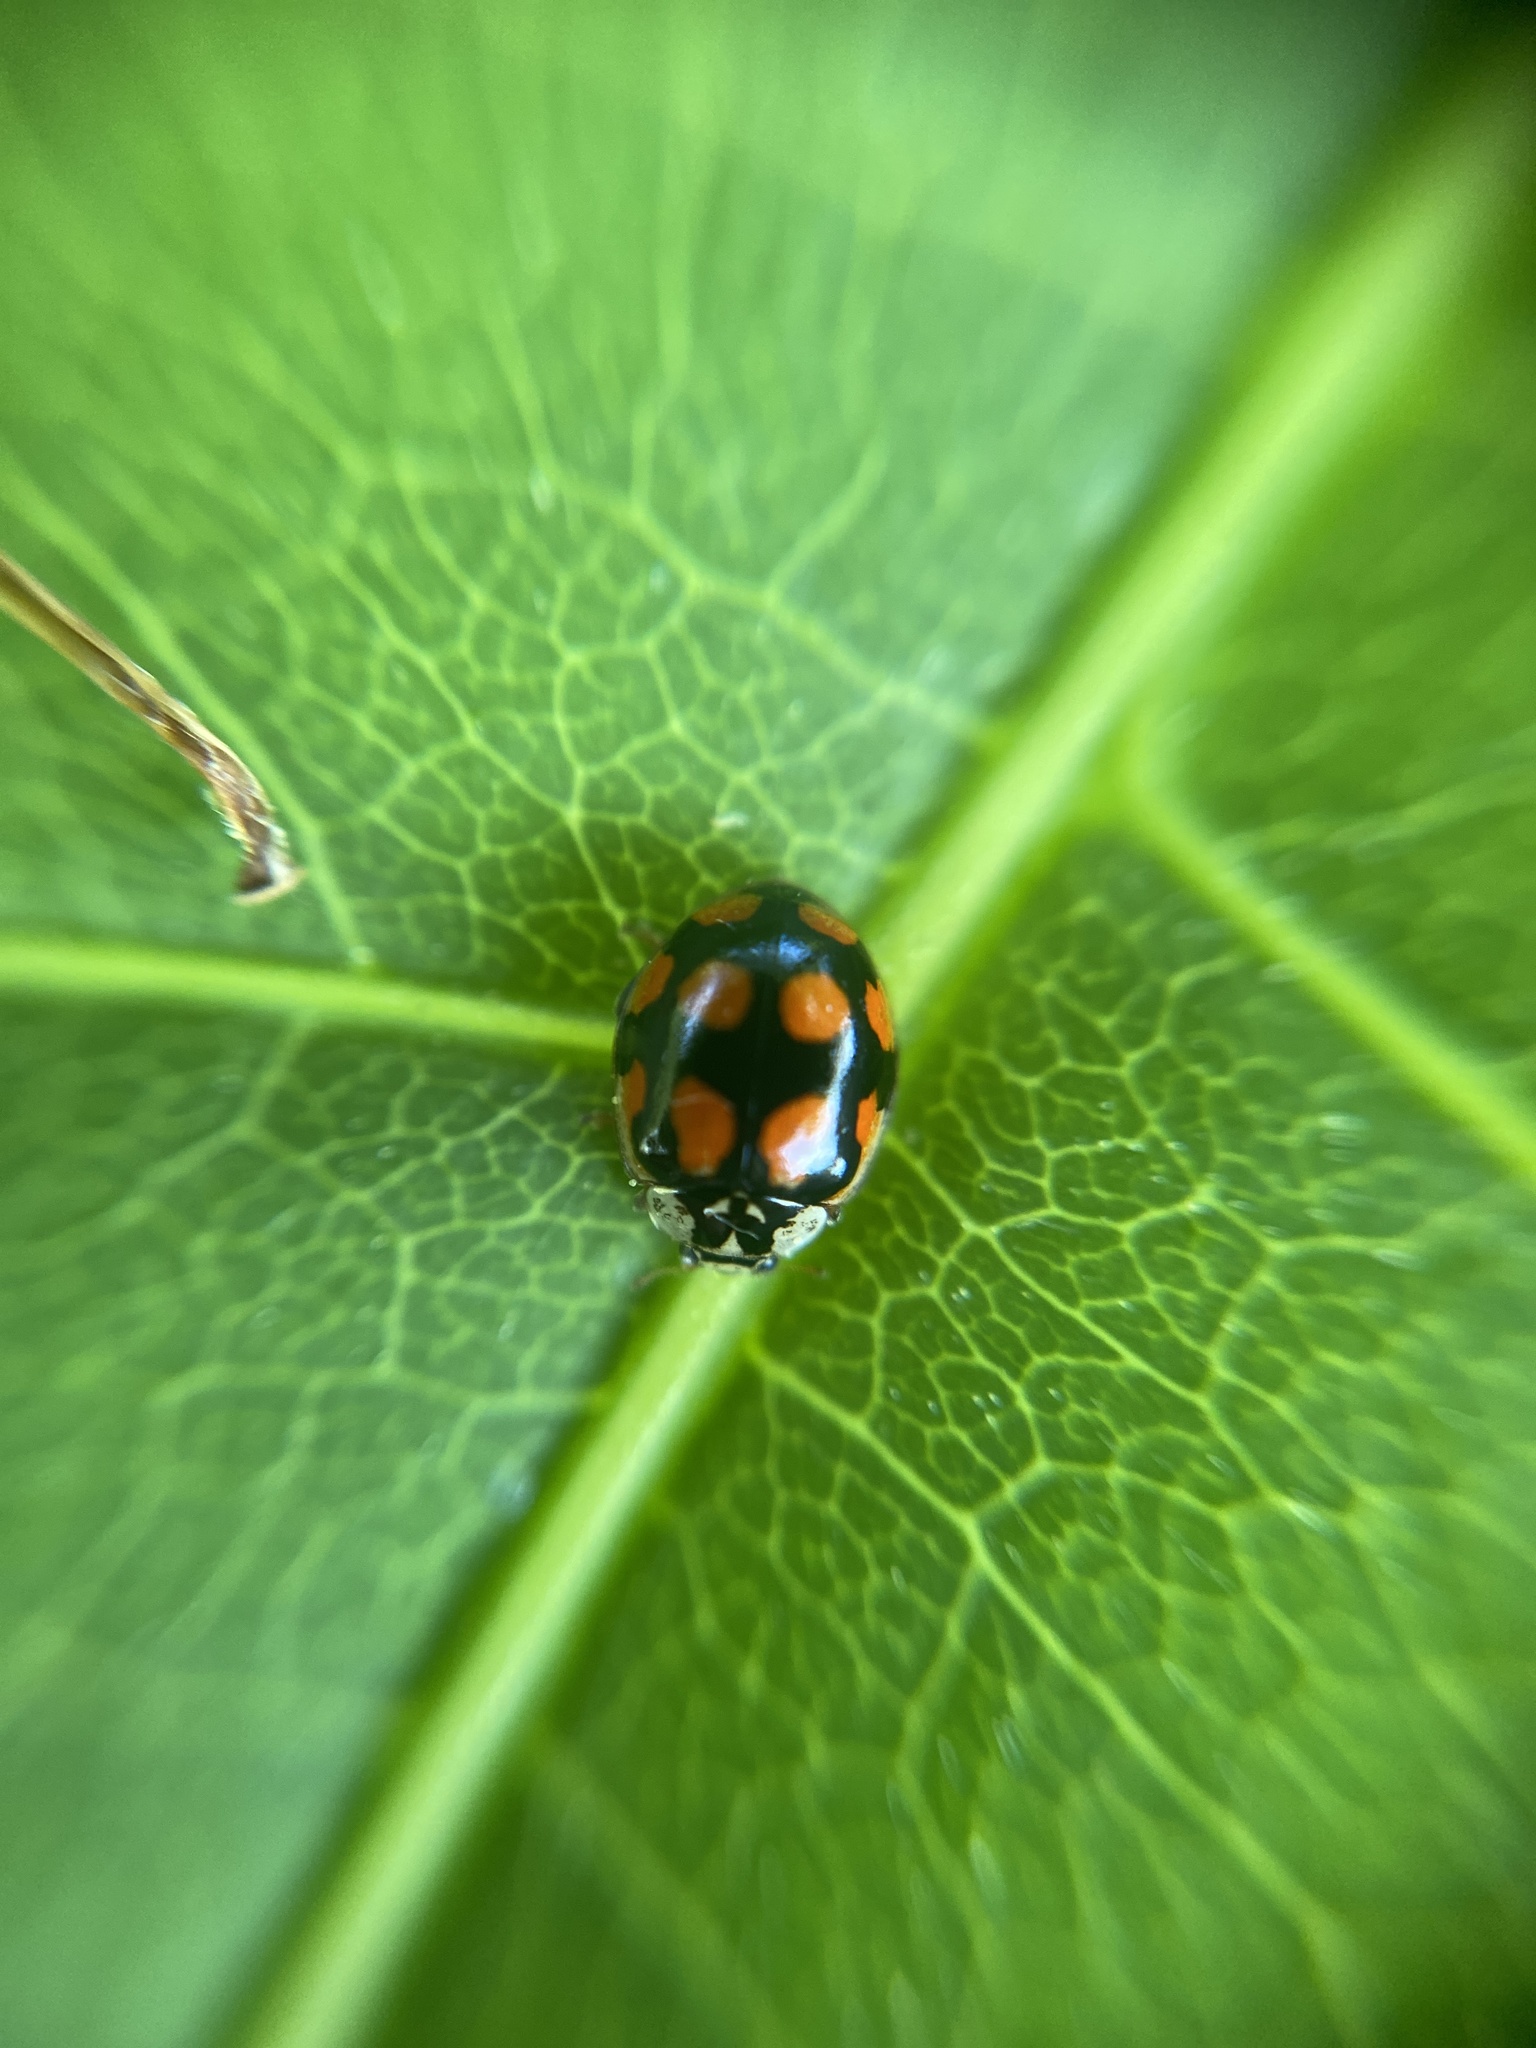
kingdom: Animalia
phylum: Arthropoda
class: Insecta
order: Coleoptera
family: Coccinellidae
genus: Adalia
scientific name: Adalia decempunctata
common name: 10-spot ladybird
